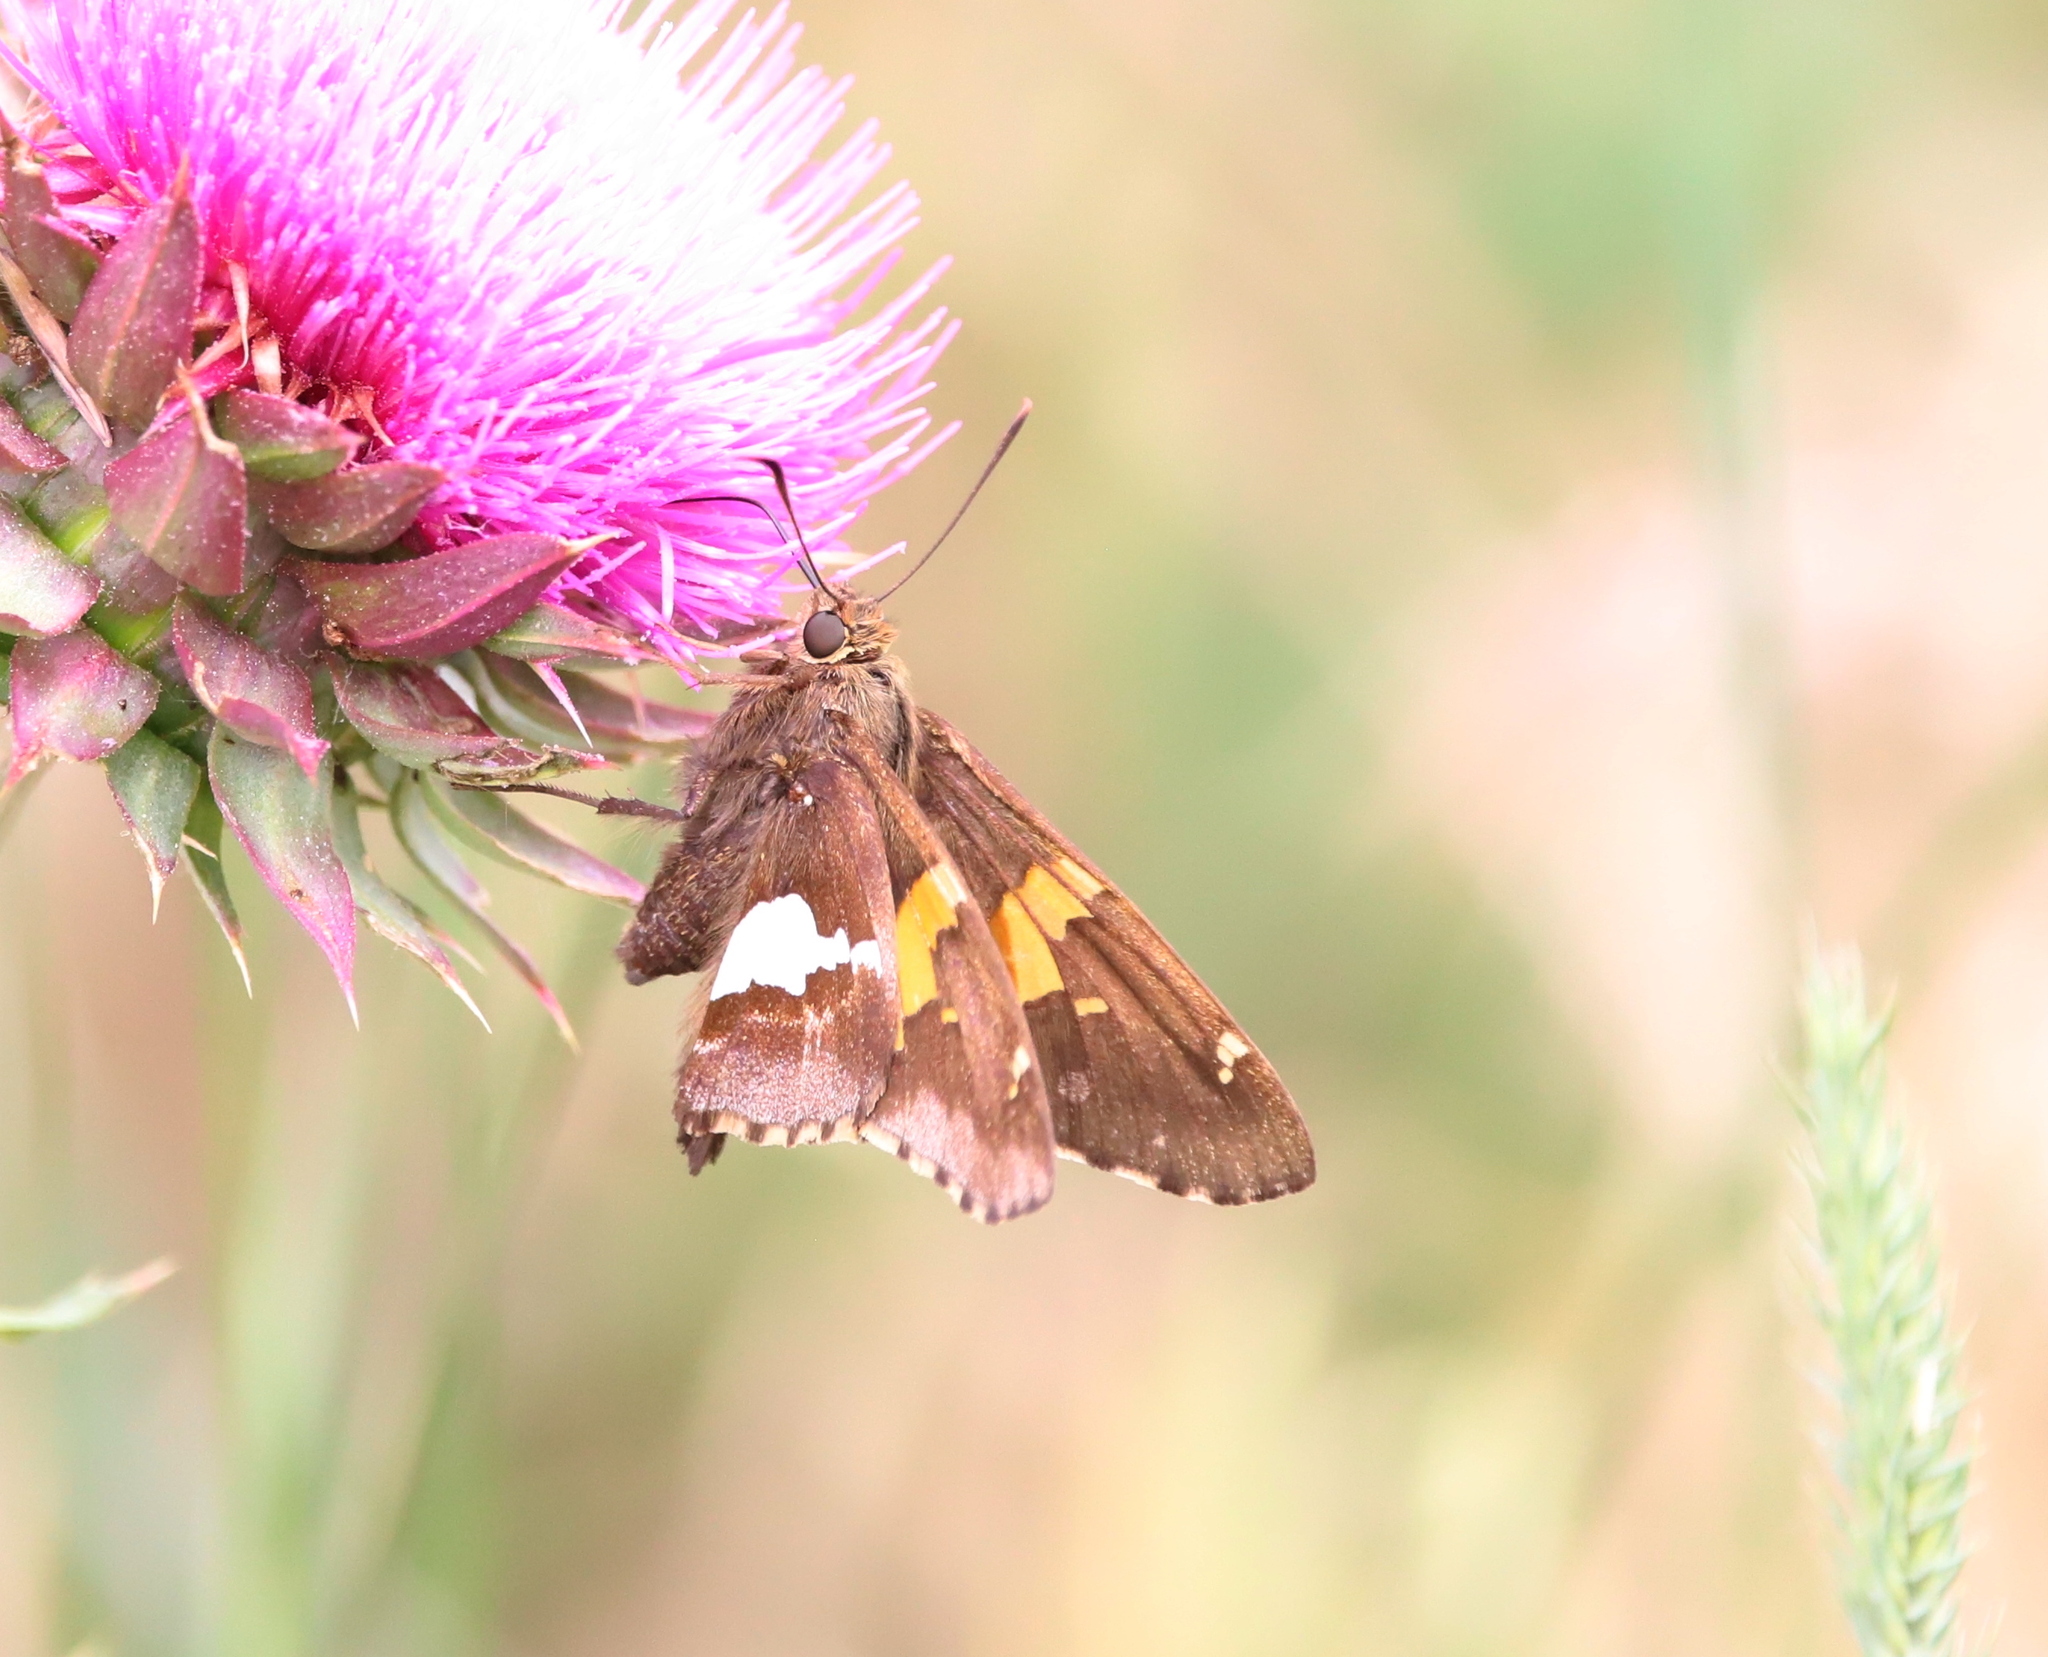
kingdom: Animalia
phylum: Arthropoda
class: Insecta
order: Lepidoptera
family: Hesperiidae
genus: Epargyreus
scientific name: Epargyreus clarus
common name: Silver-spotted skipper
